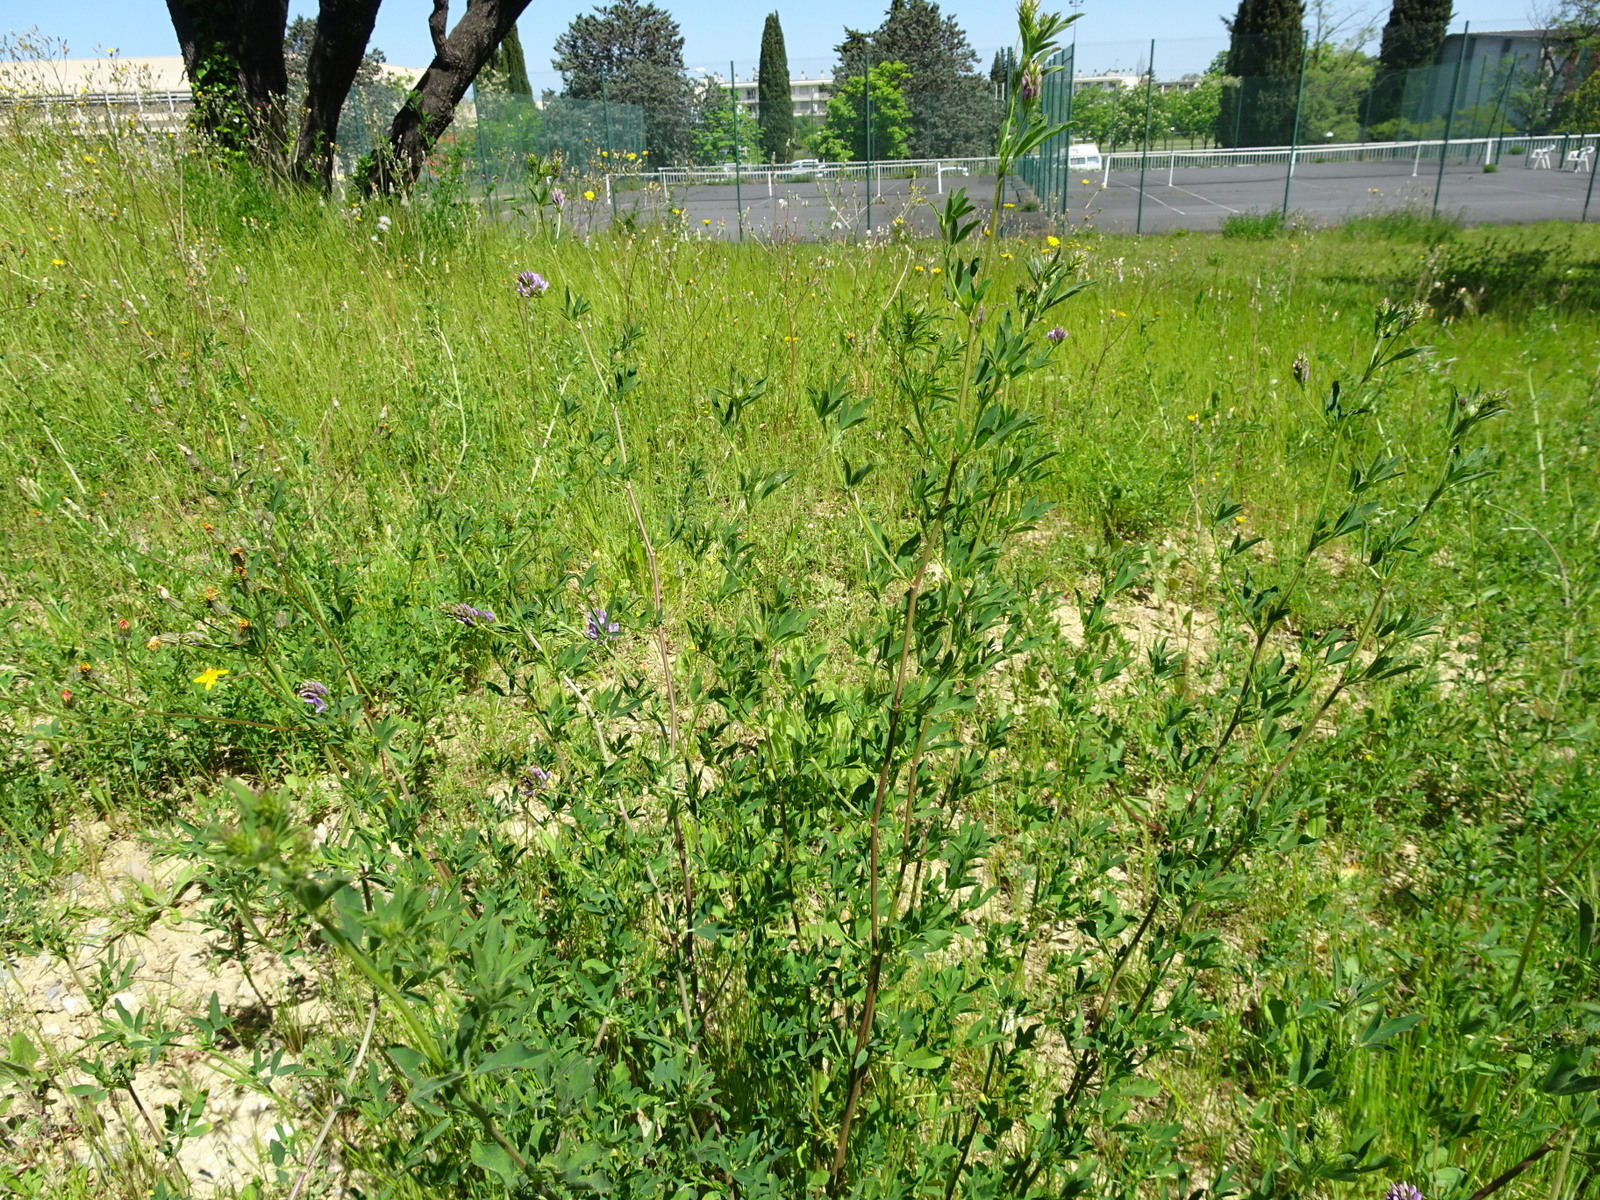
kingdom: Plantae
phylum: Tracheophyta
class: Magnoliopsida
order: Fabales
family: Fabaceae
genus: Medicago
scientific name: Medicago sativa
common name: Alfalfa
